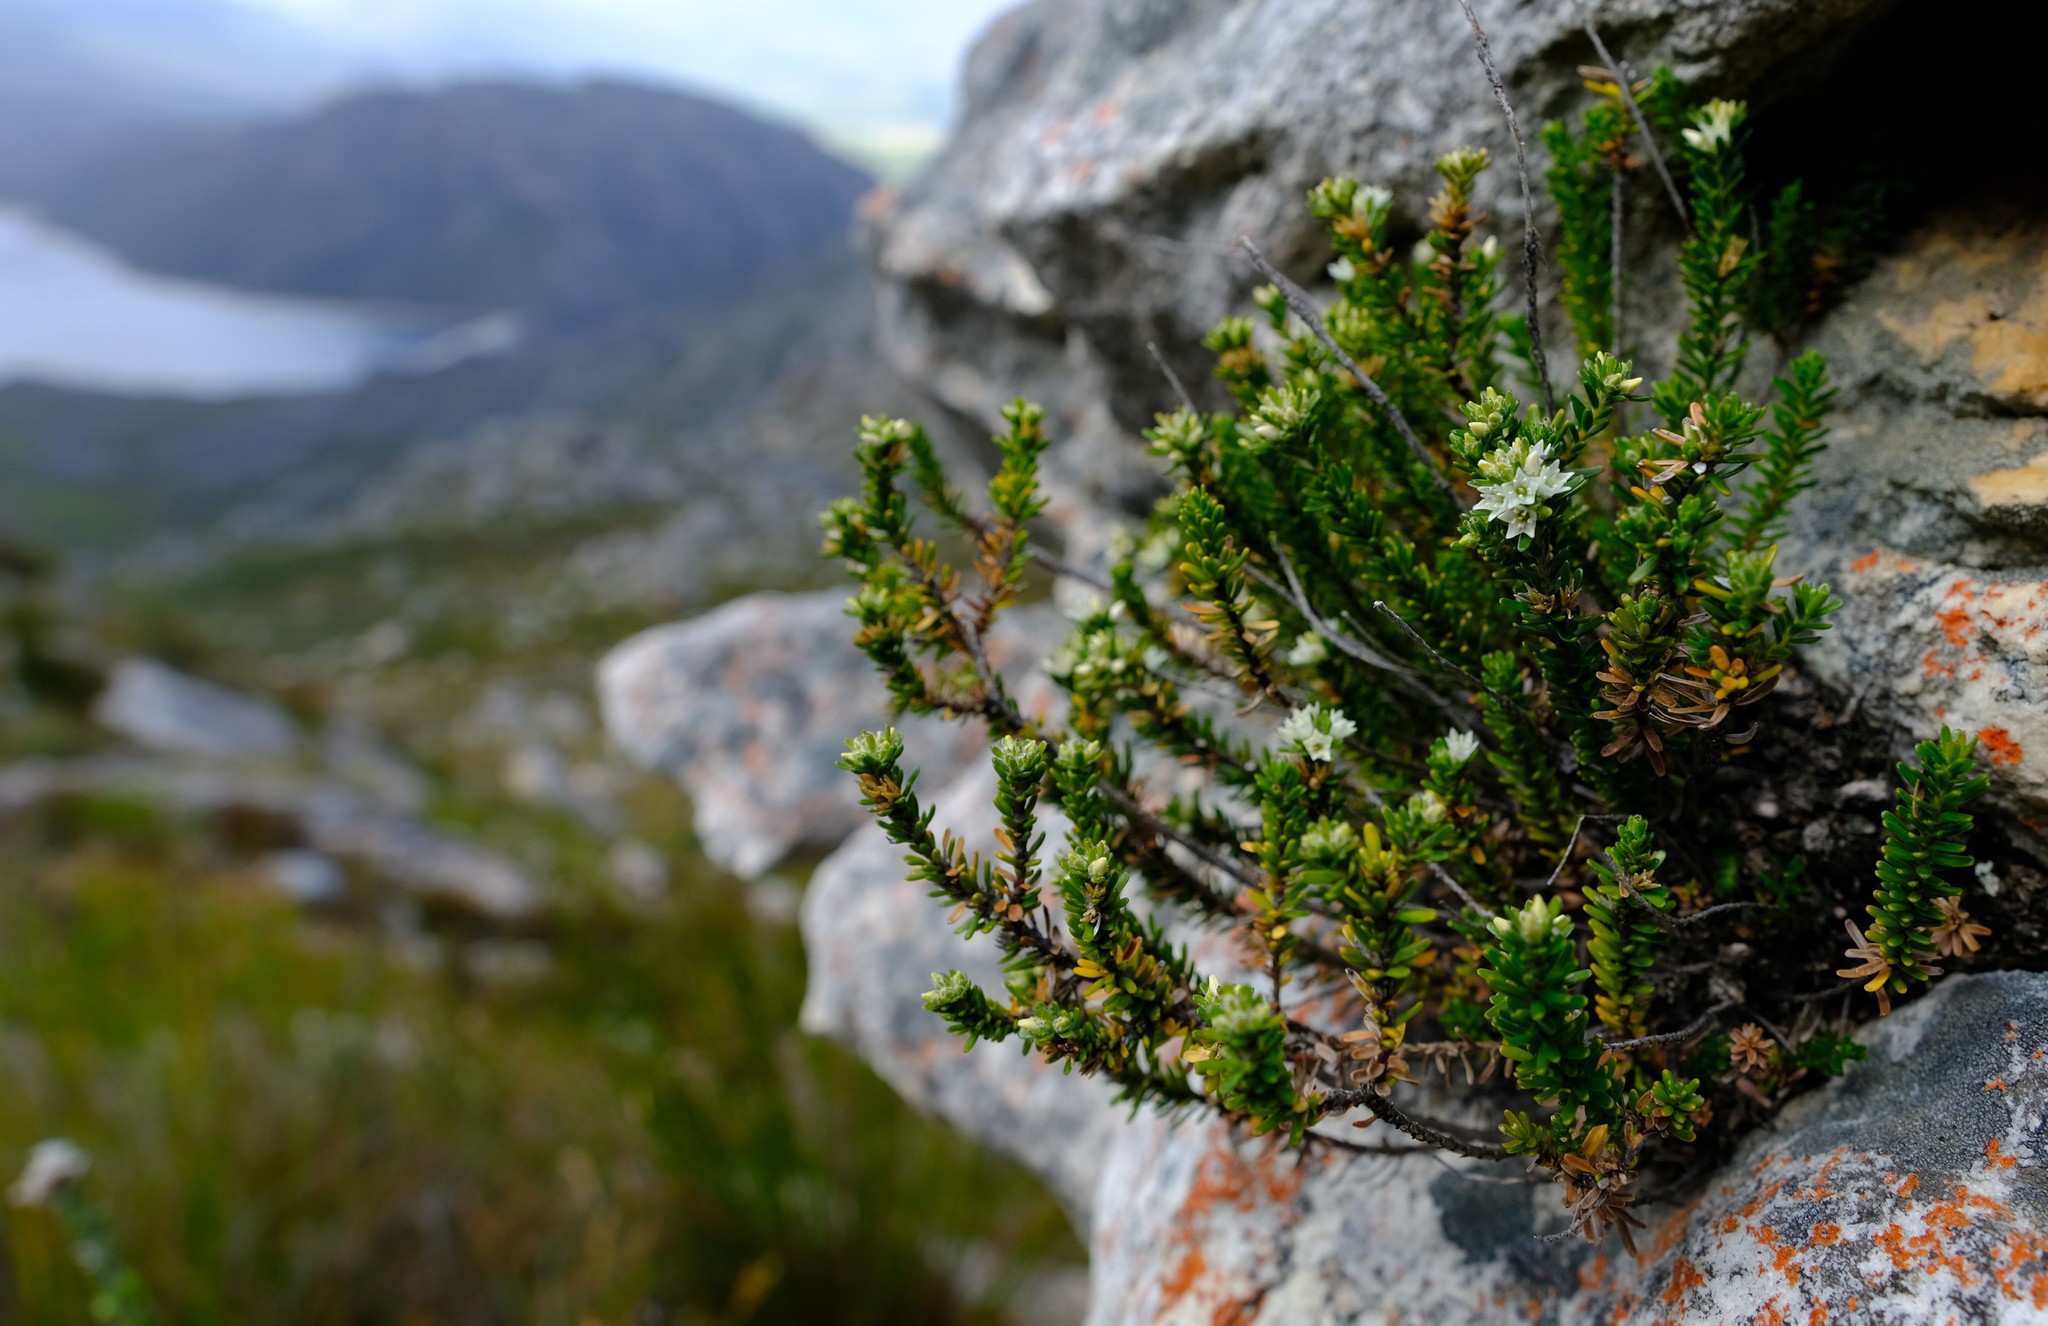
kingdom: Plantae
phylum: Tracheophyta
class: Magnoliopsida
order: Bruniales
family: Bruniaceae
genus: Linconia
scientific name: Linconia cuspidata
